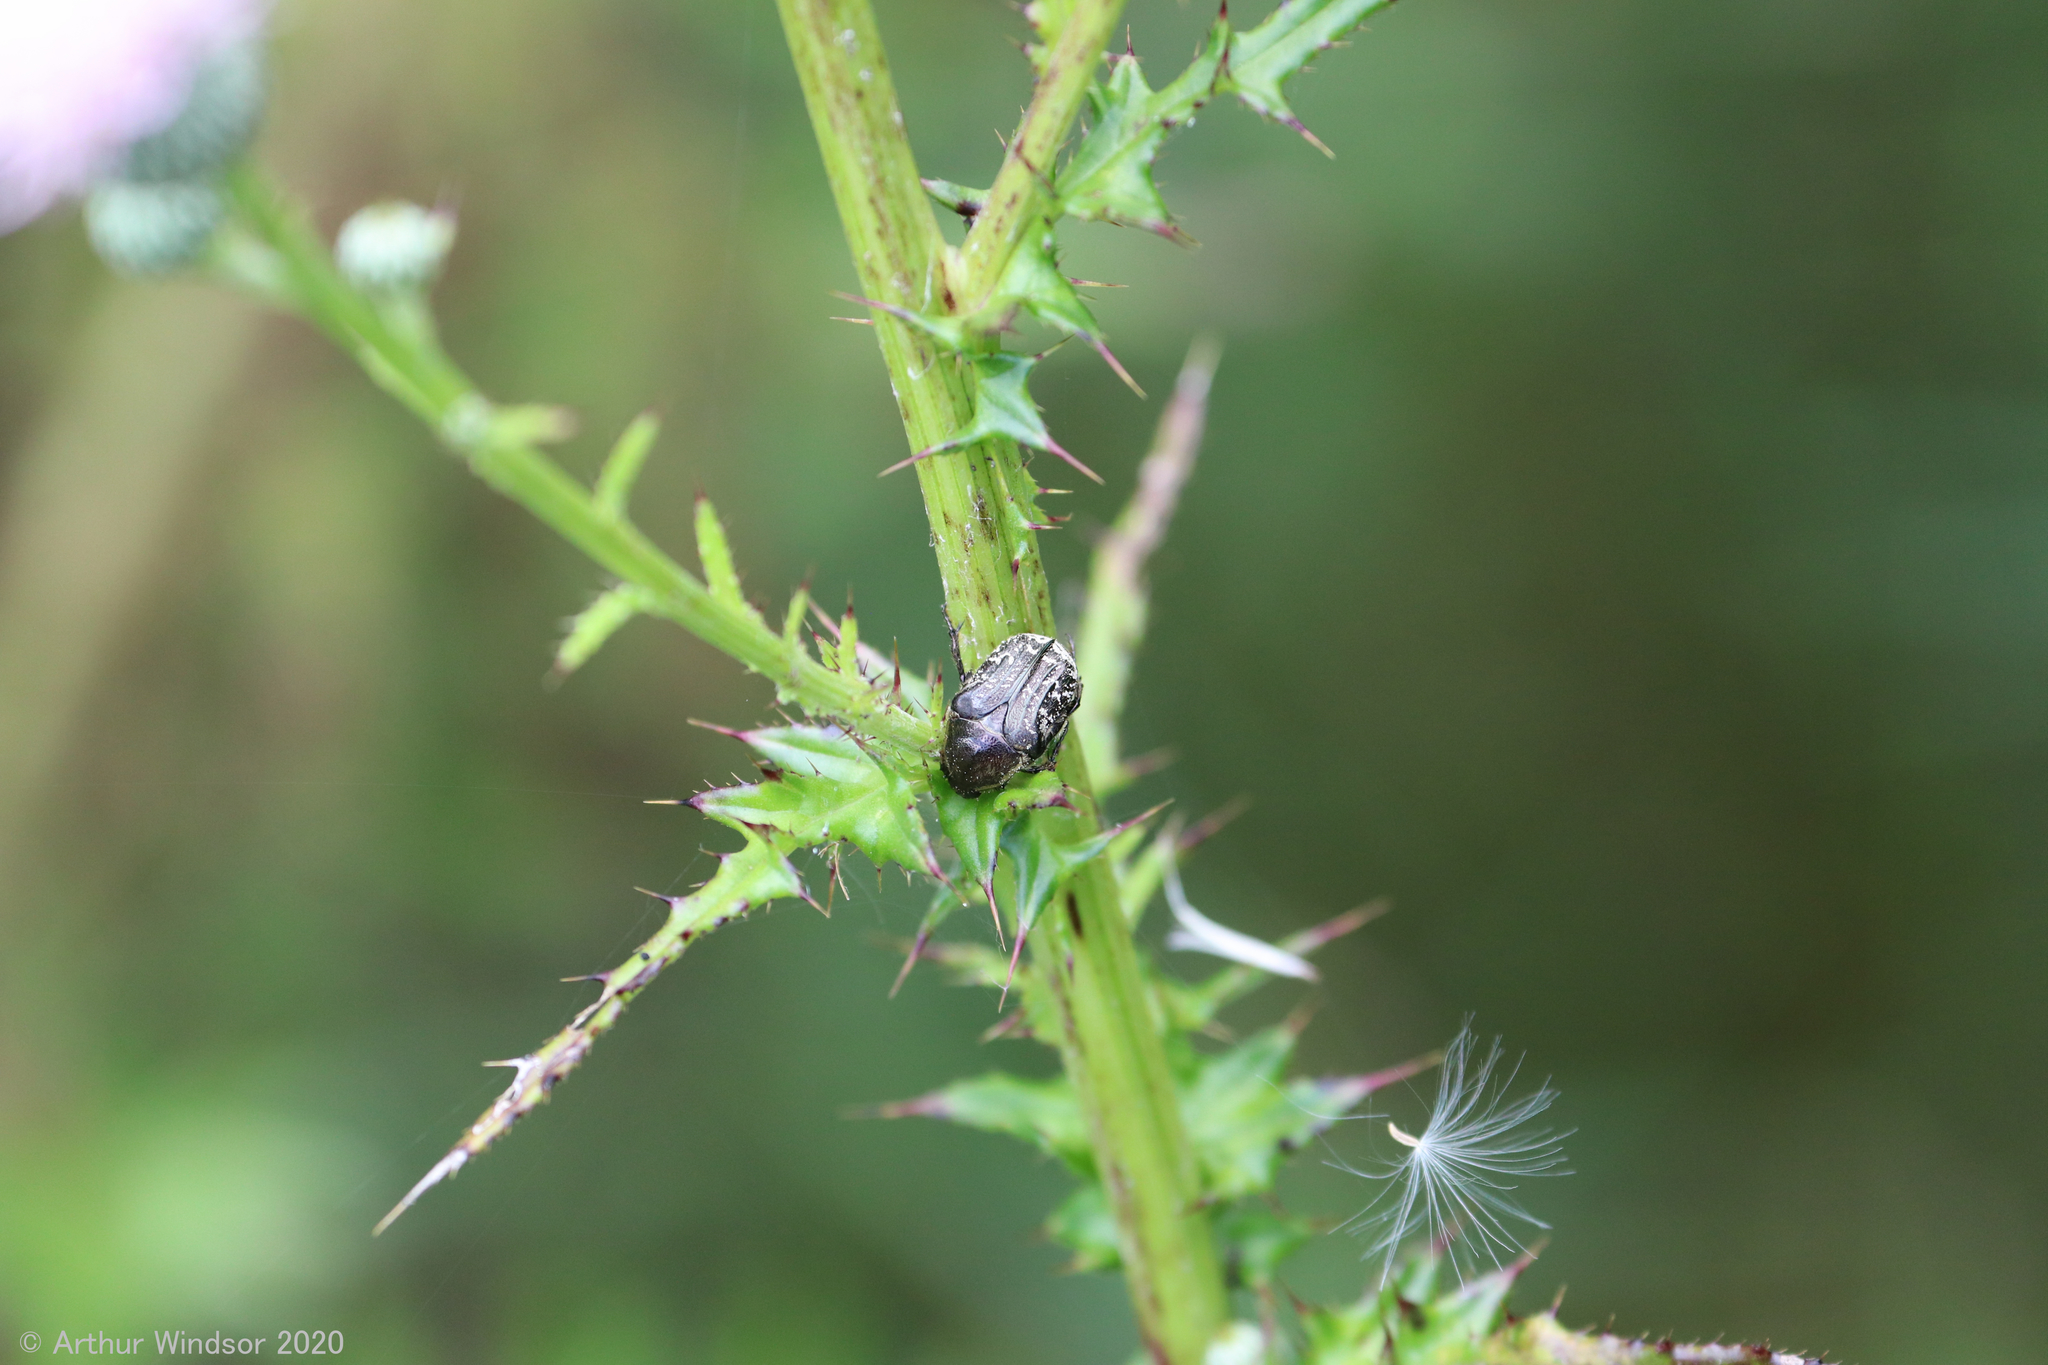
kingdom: Animalia
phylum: Arthropoda
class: Insecta
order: Coleoptera
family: Scarabaeidae
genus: Euphoria
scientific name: Euphoria sepulcralis
